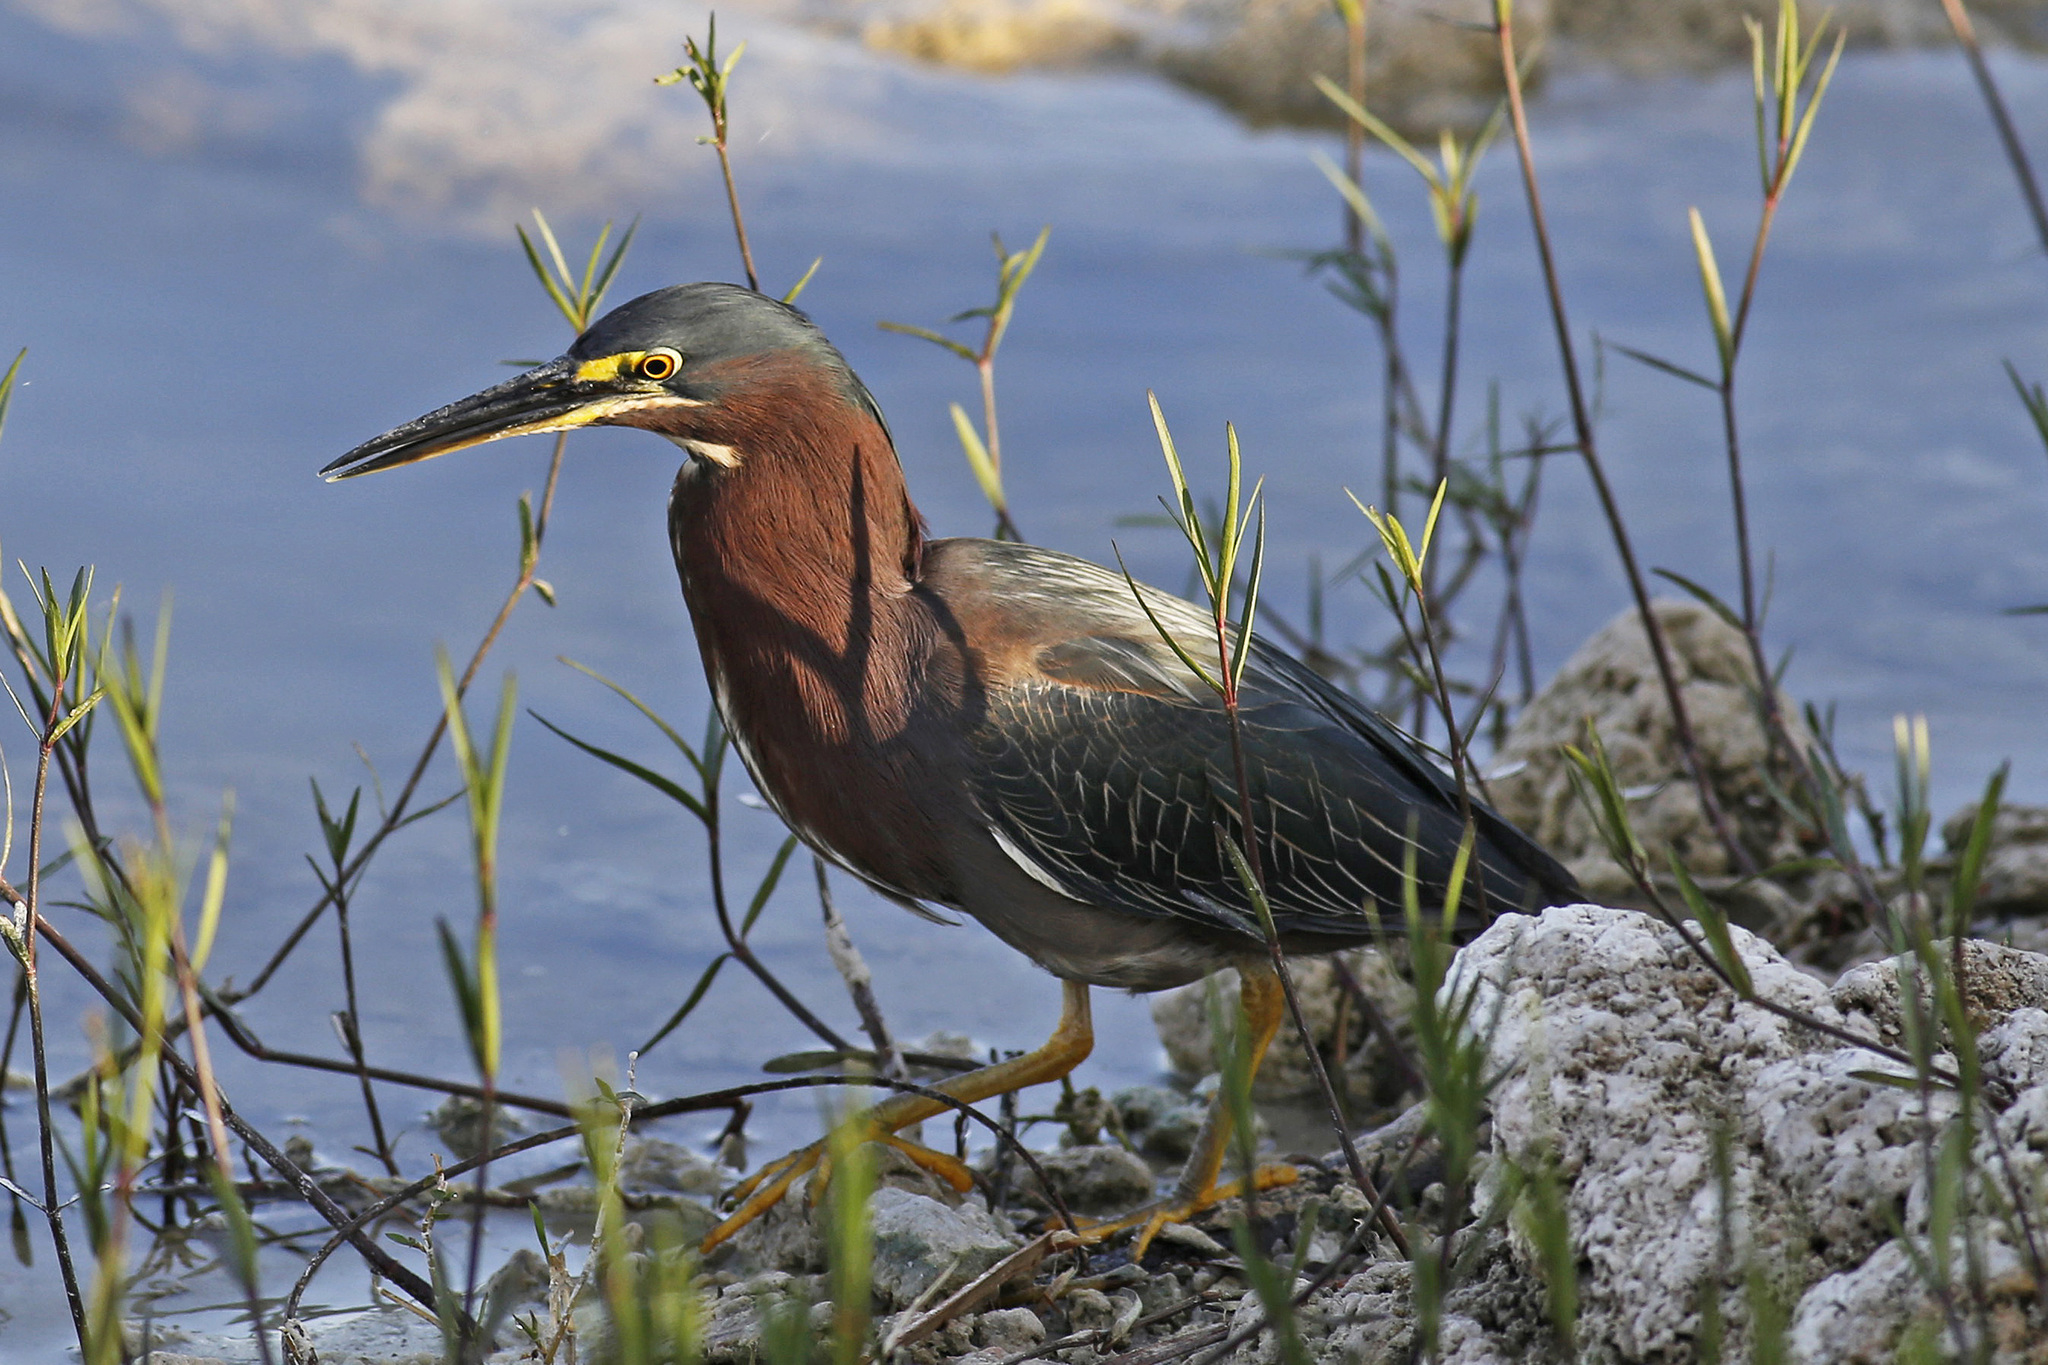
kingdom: Animalia
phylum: Chordata
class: Aves
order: Pelecaniformes
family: Ardeidae
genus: Butorides
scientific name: Butorides virescens
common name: Green heron
